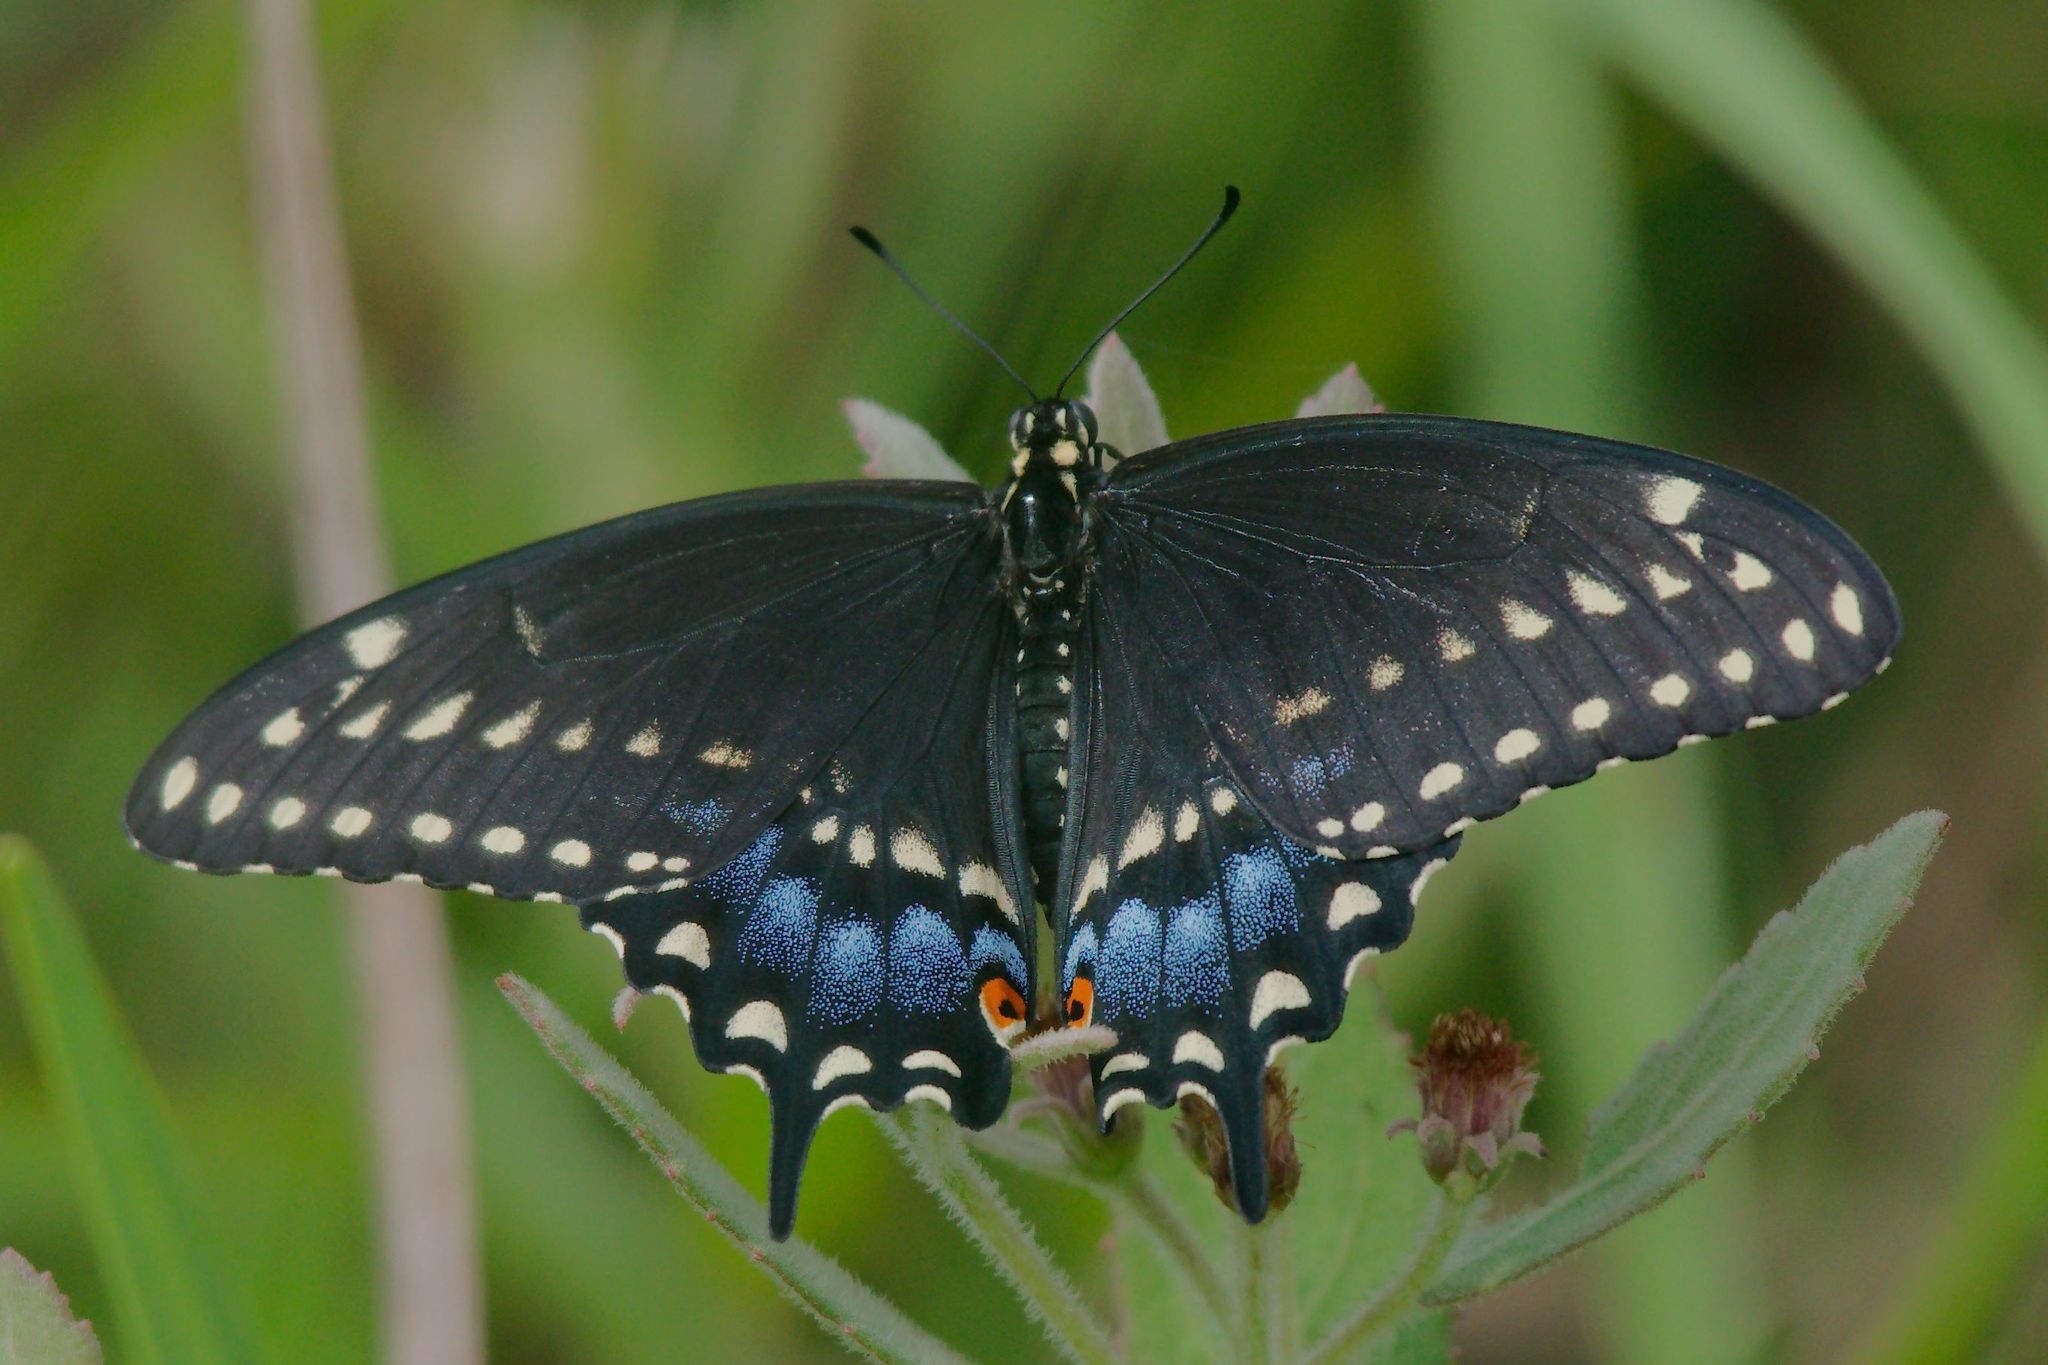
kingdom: Animalia
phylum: Arthropoda
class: Insecta
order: Lepidoptera
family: Papilionidae
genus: Papilio
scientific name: Papilio polyxenes
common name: Black swallowtail
